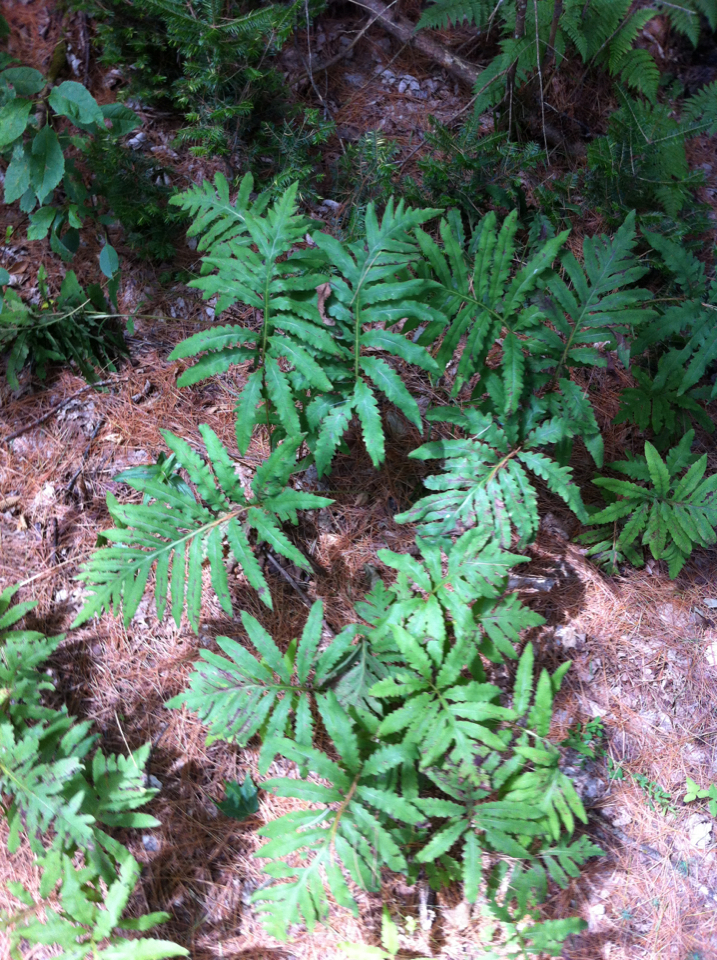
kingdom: Plantae
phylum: Tracheophyta
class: Polypodiopsida
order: Polypodiales
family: Onocleaceae
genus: Onoclea
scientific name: Onoclea sensibilis
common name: Sensitive fern
